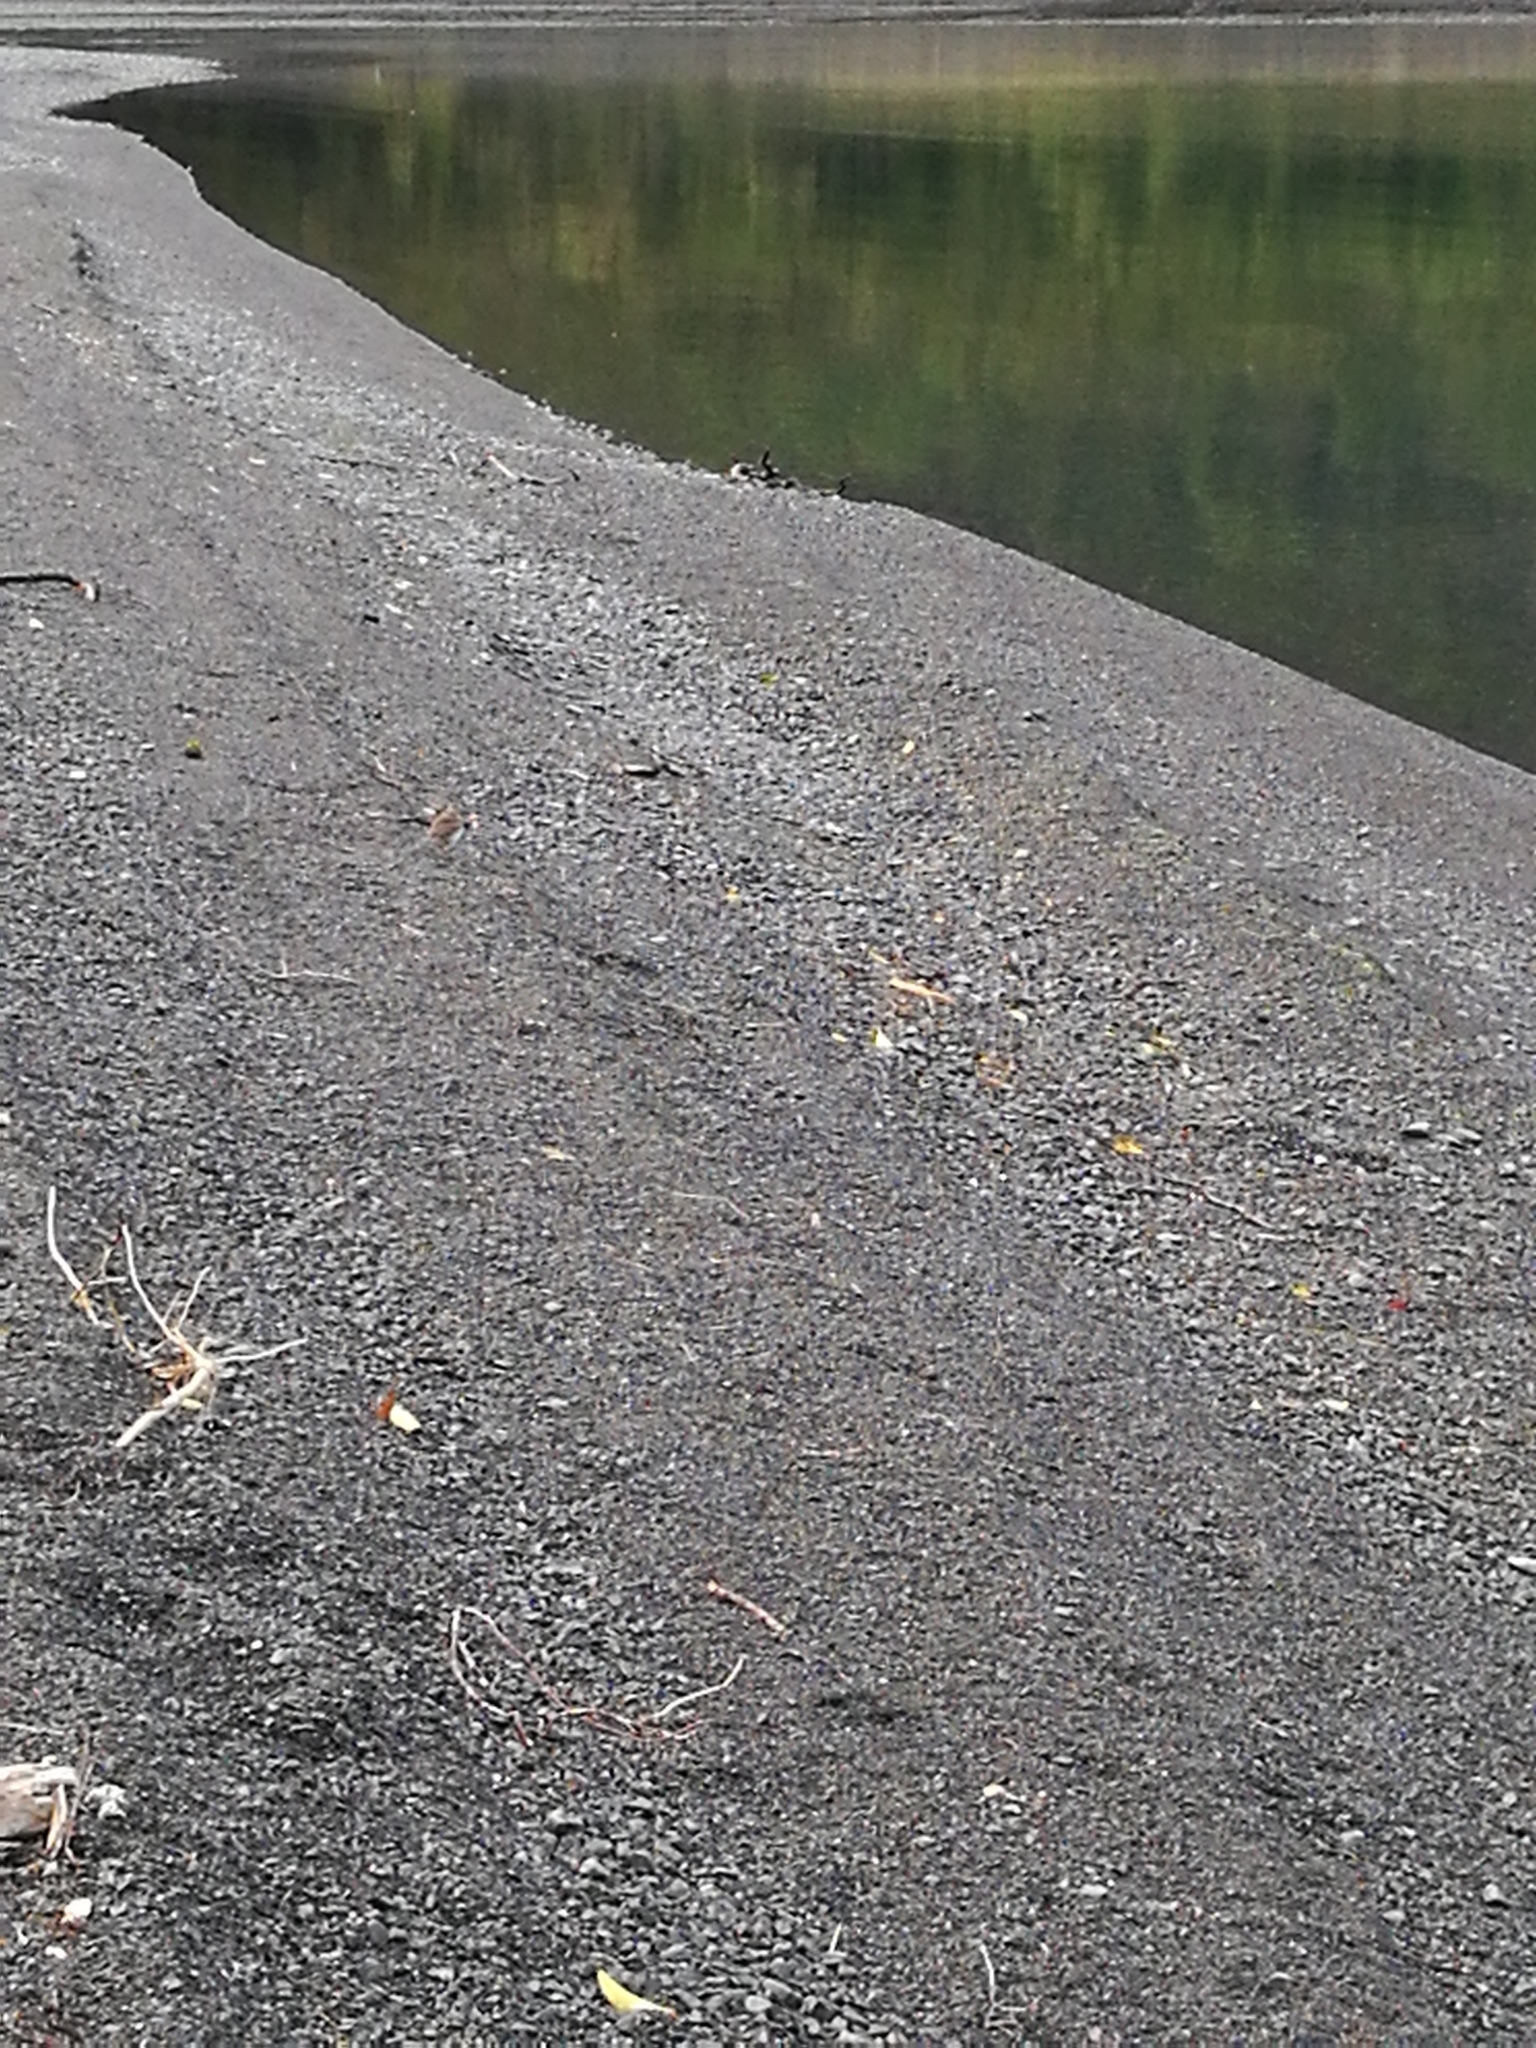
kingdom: Animalia
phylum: Chordata
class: Aves
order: Passeriformes
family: Motacillidae
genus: Anthus
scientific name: Anthus novaeseelandiae
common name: New zealand pipit
